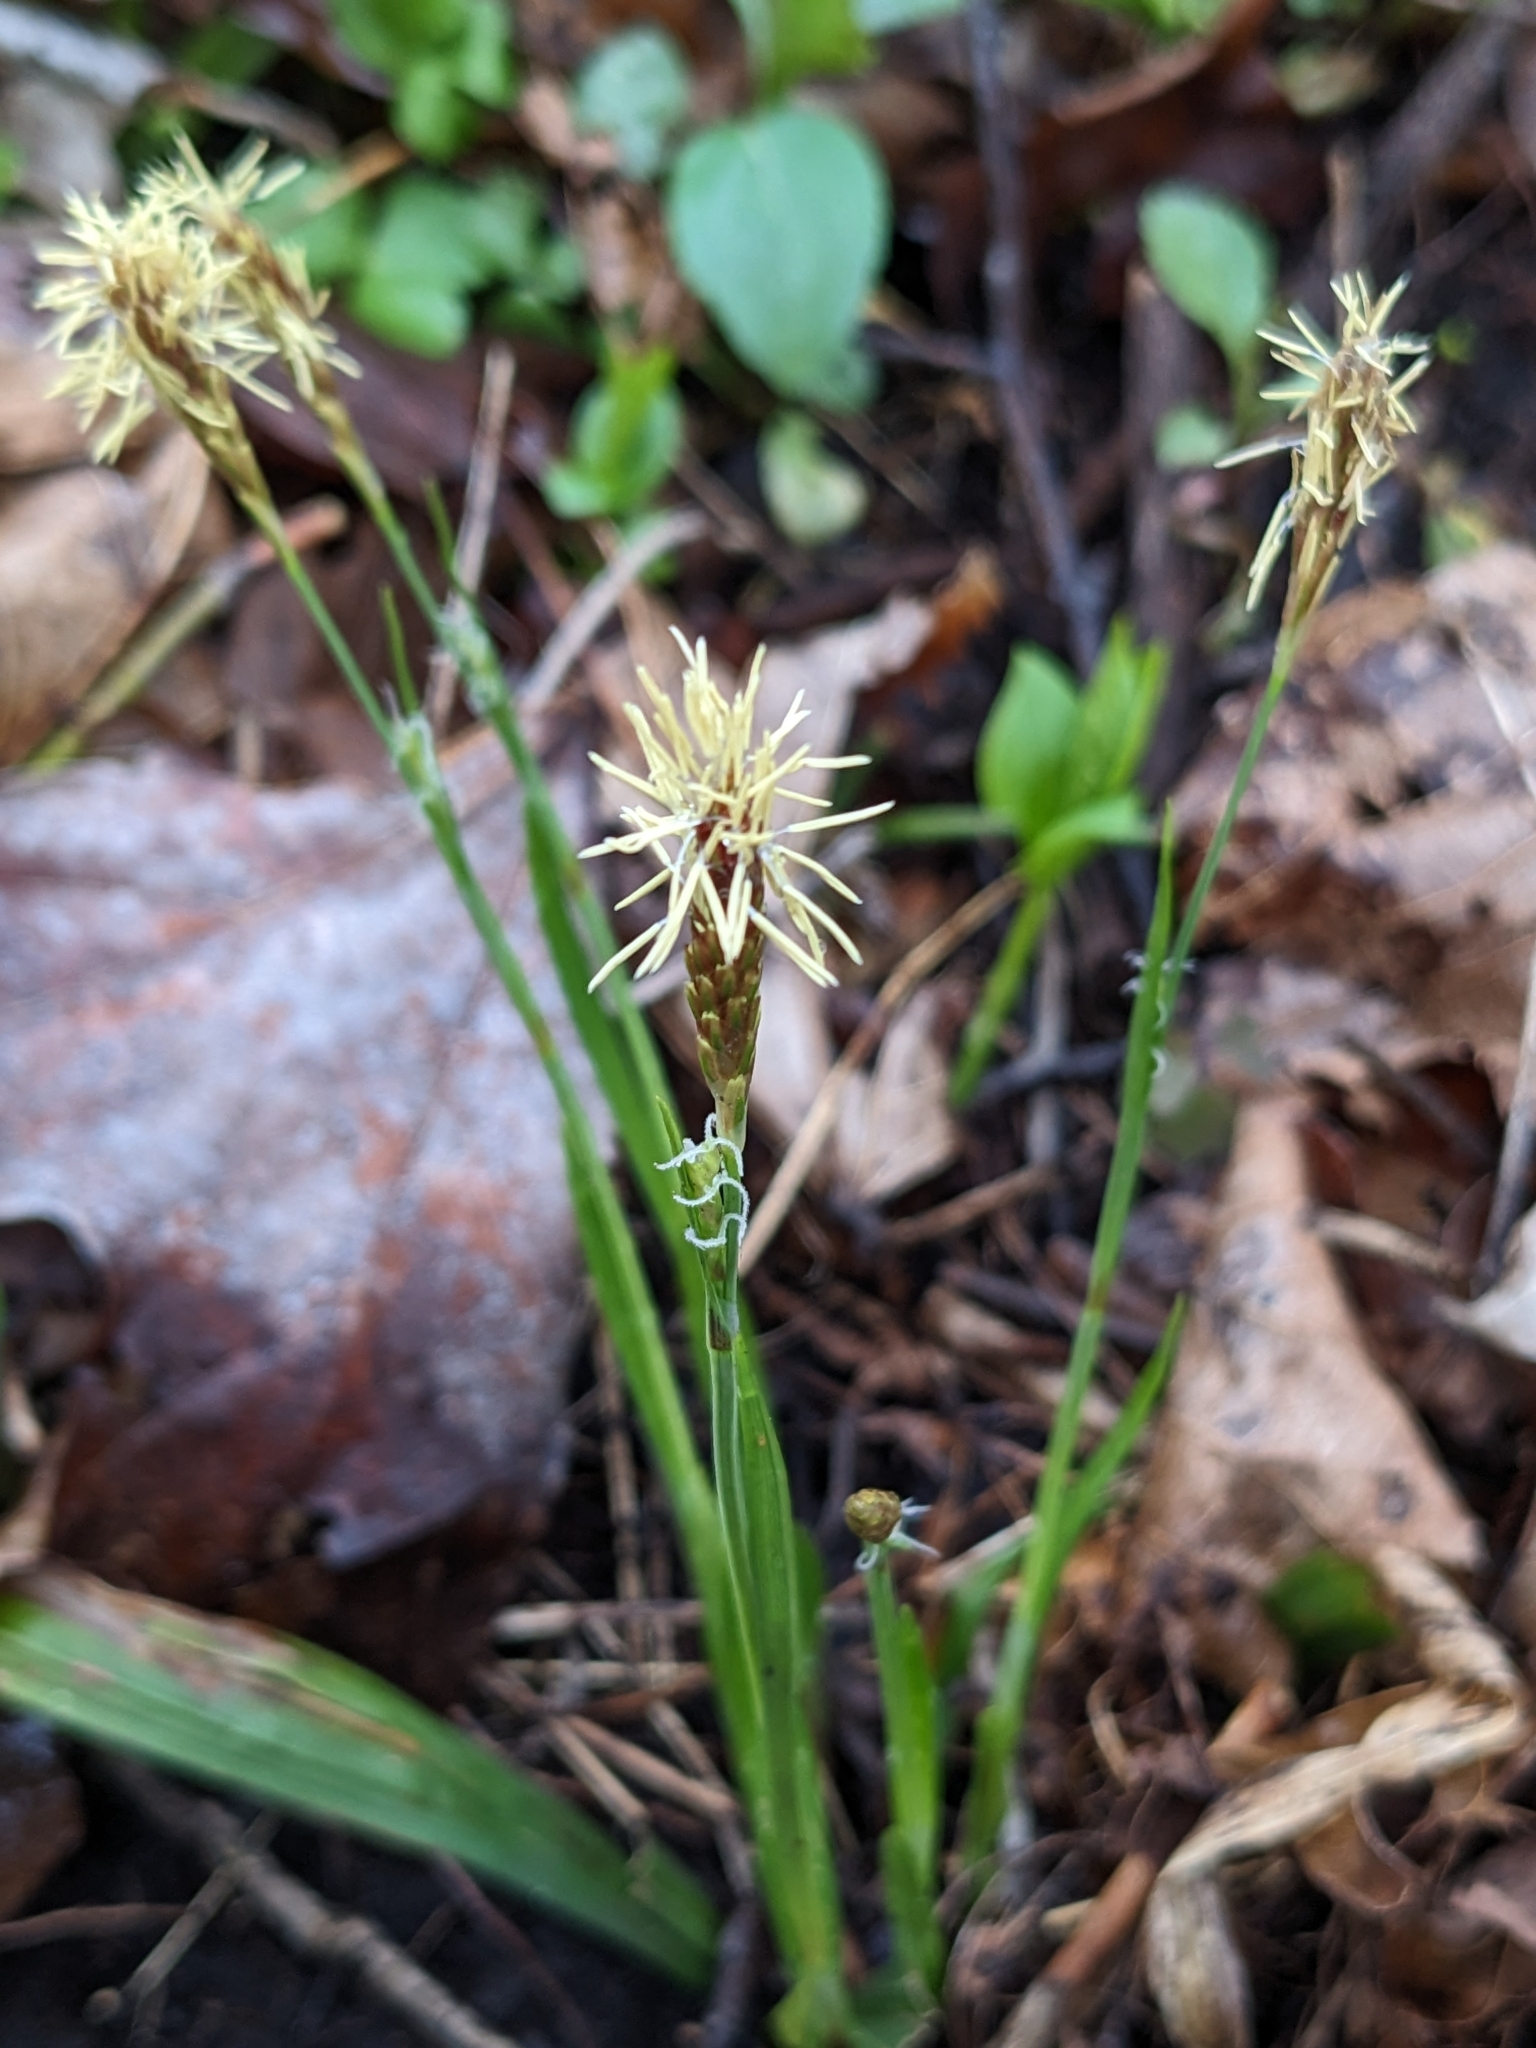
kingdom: Plantae
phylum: Tracheophyta
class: Liliopsida
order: Poales
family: Cyperaceae
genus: Carex
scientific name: Carex pensylvanica
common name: Common oak sedge
